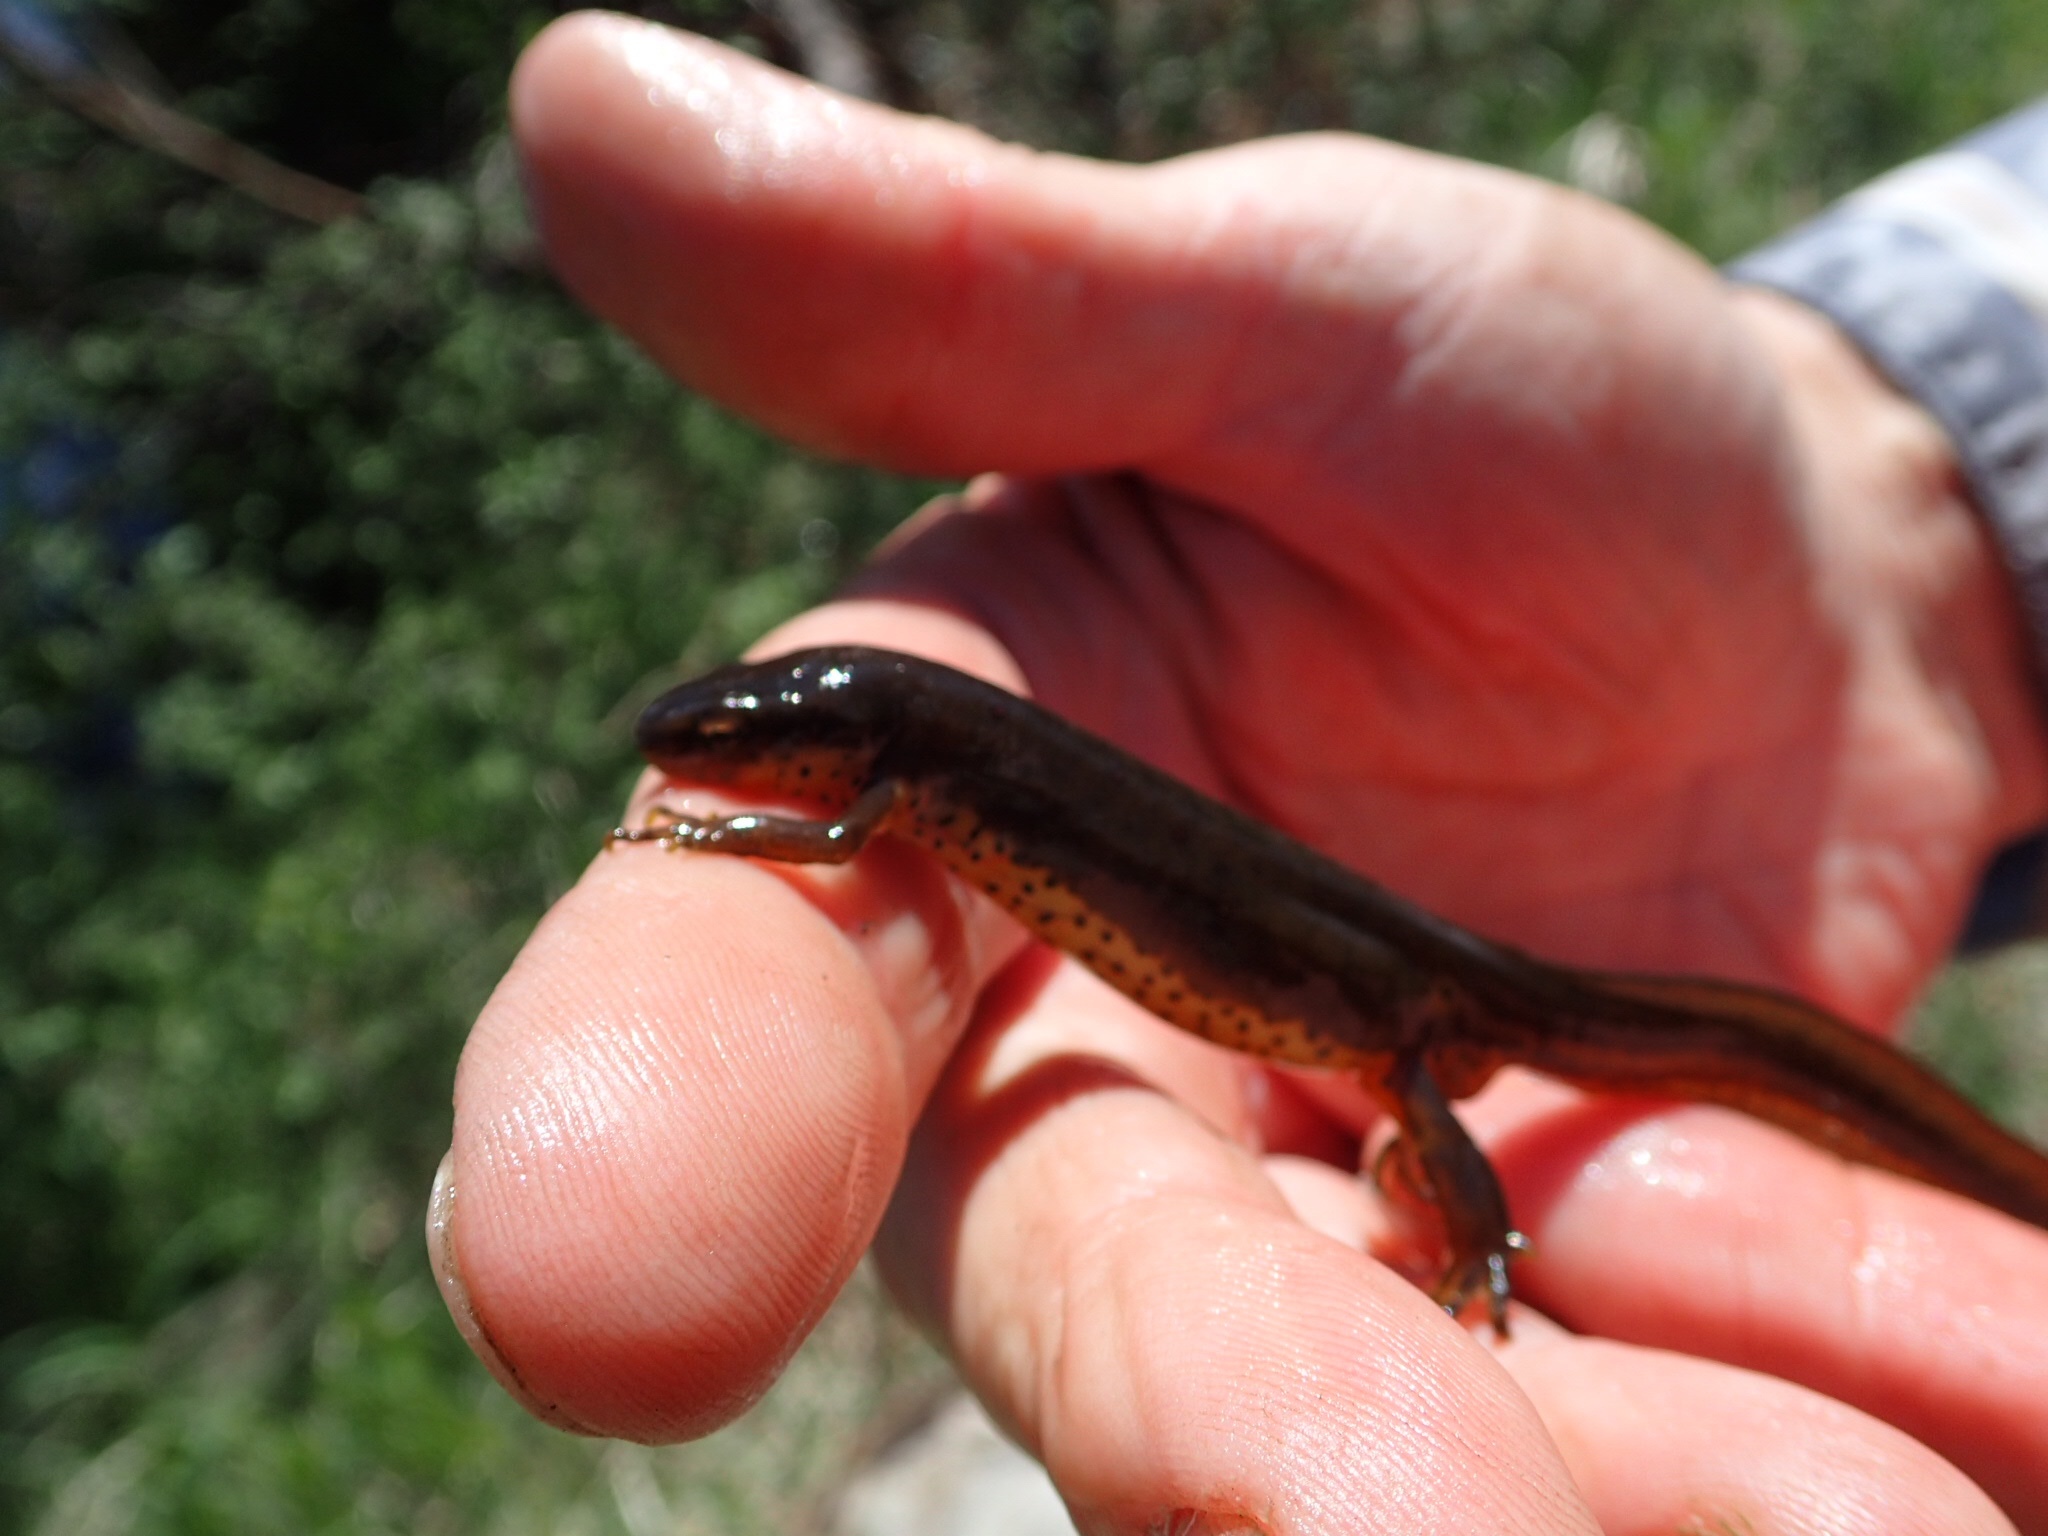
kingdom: Animalia
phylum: Chordata
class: Amphibia
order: Caudata
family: Salamandridae
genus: Notophthalmus
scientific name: Notophthalmus viridescens
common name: Eastern newt
